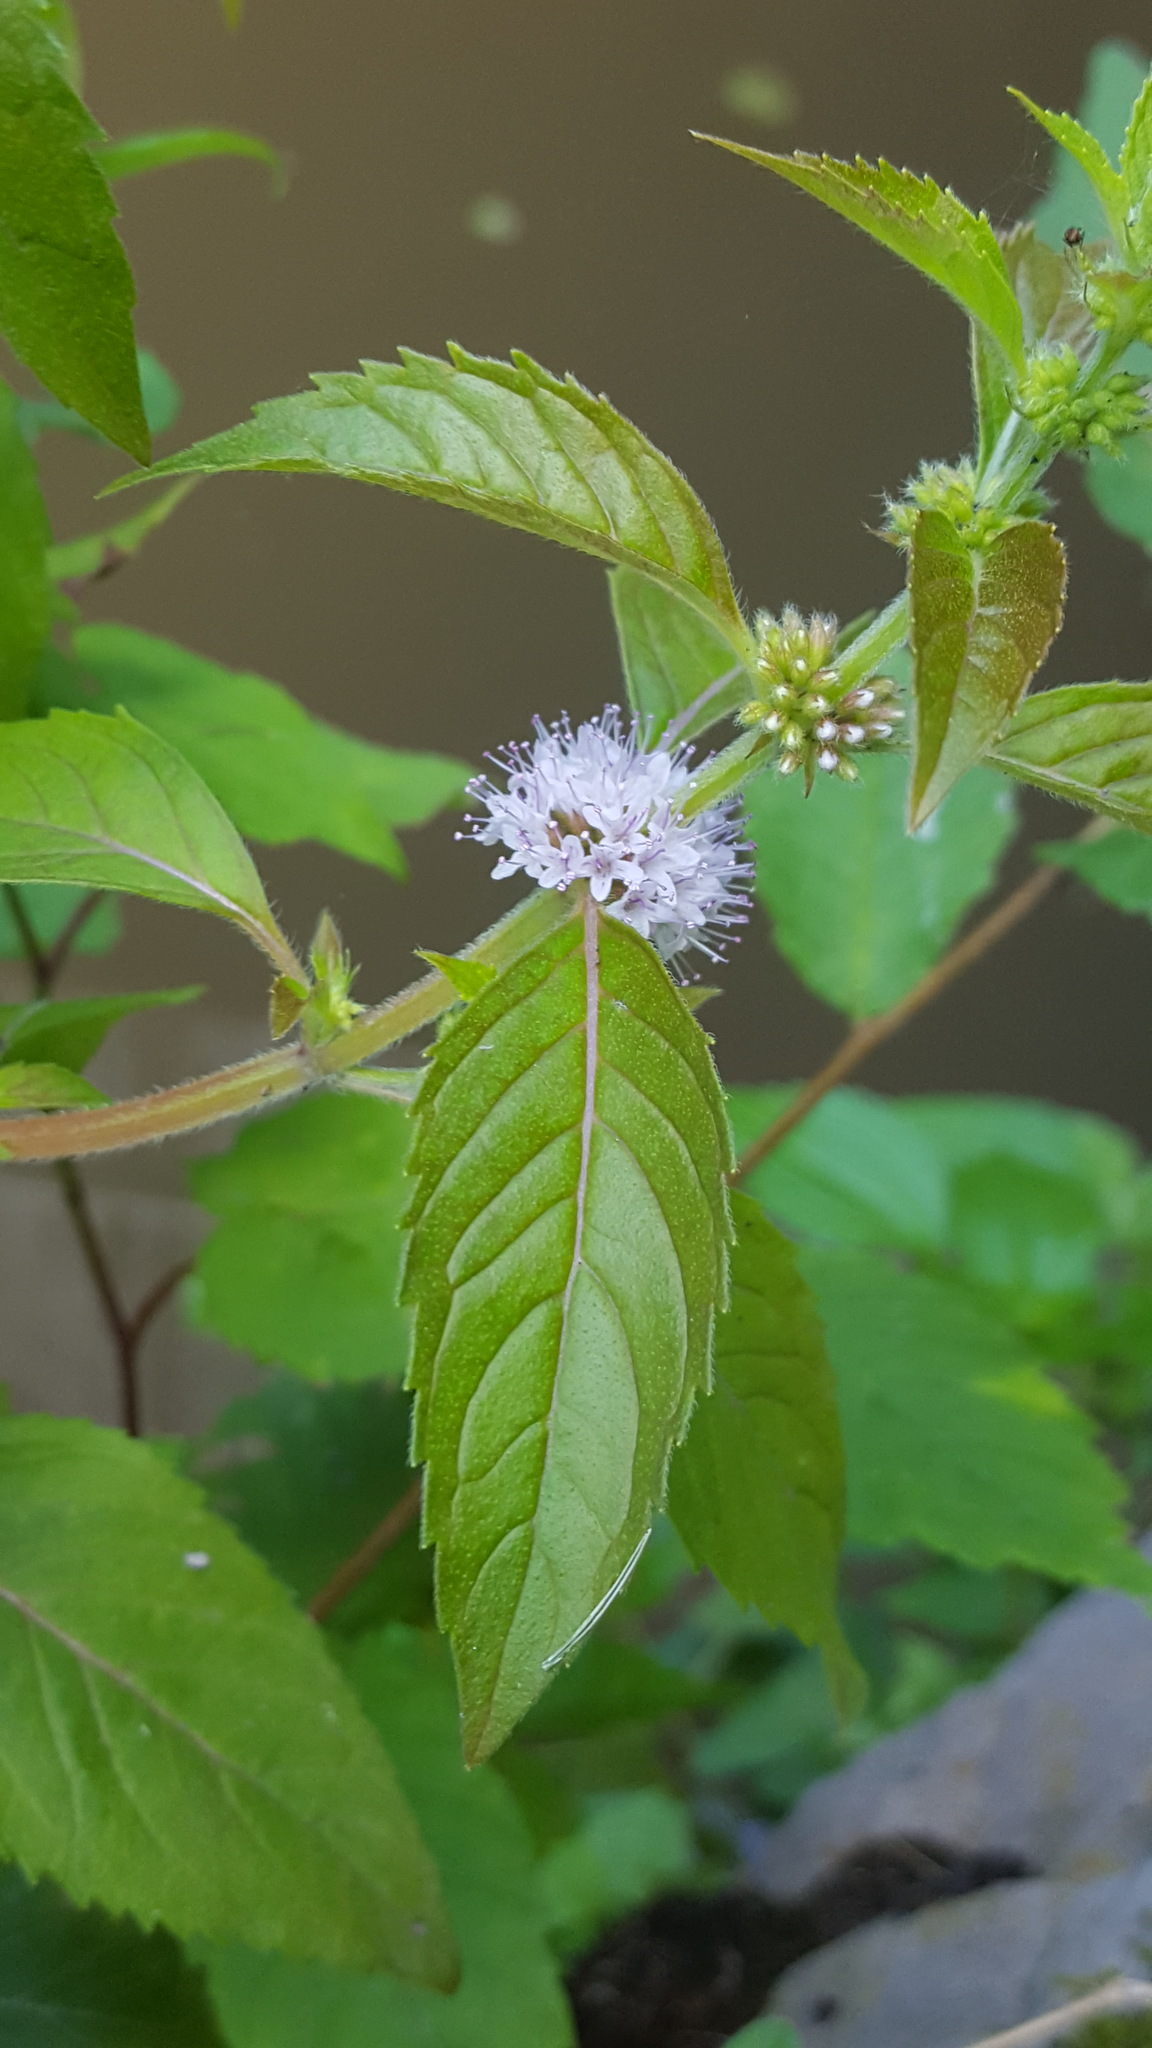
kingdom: Plantae
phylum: Tracheophyta
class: Magnoliopsida
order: Lamiales
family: Lamiaceae
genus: Mentha
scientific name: Mentha arvensis
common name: Corn mint
